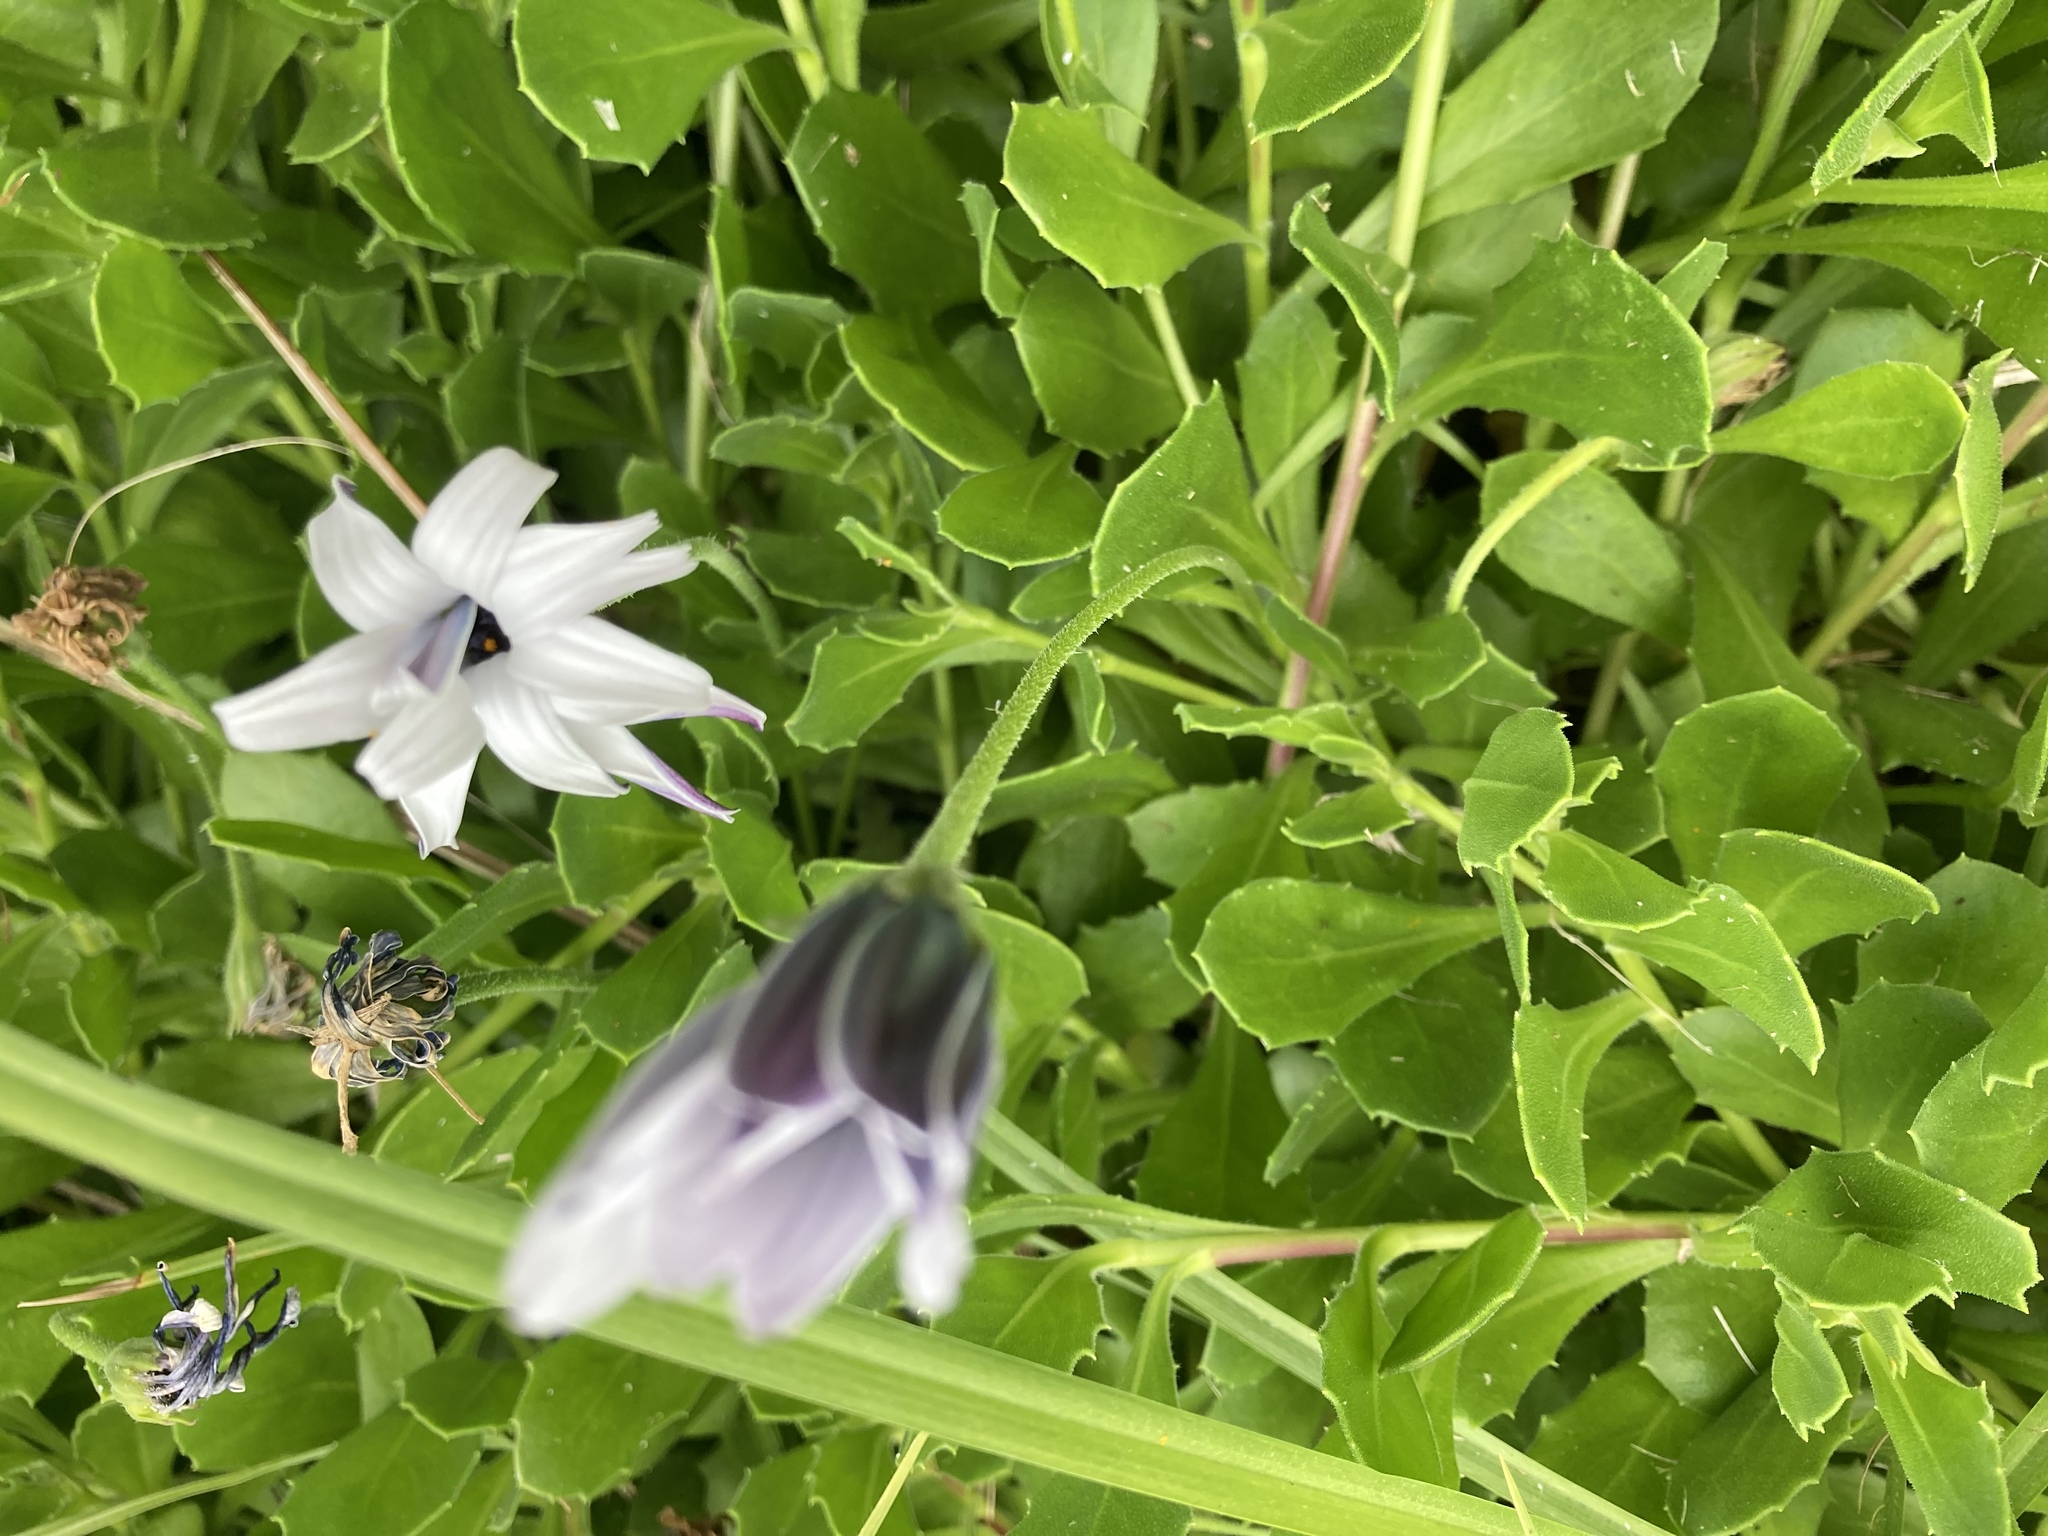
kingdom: Plantae
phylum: Tracheophyta
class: Magnoliopsida
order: Asterales
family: Asteraceae
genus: Dimorphotheca
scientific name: Dimorphotheca fruticosa
